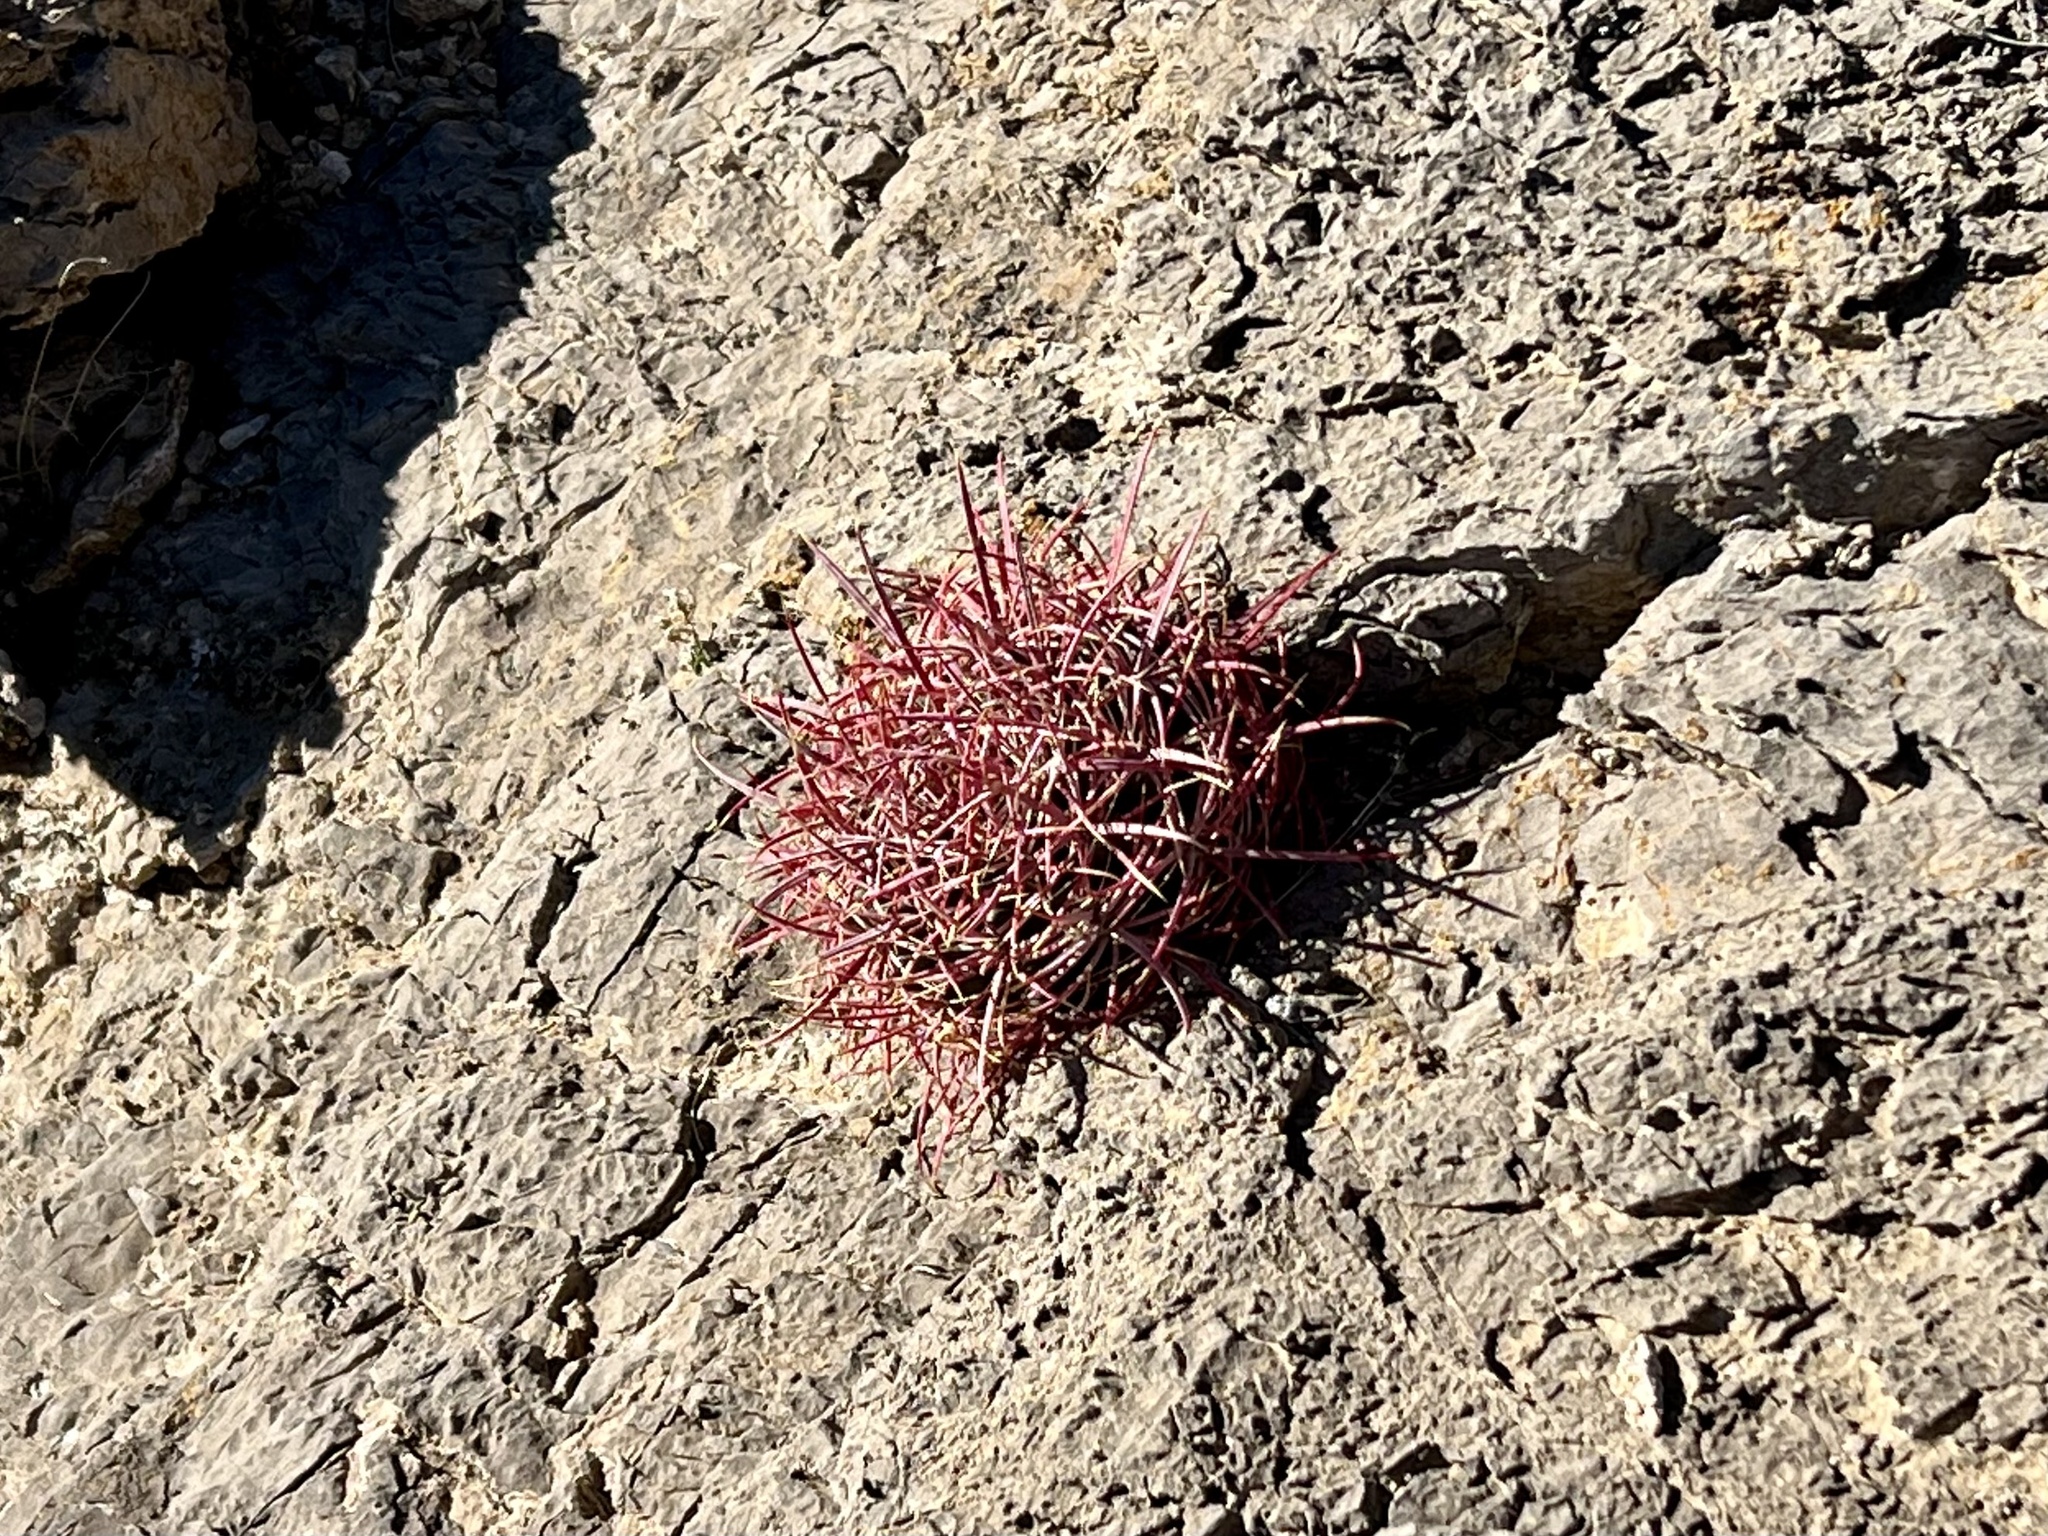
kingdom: Plantae
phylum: Tracheophyta
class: Magnoliopsida
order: Caryophyllales
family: Cactaceae
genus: Ferocactus
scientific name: Ferocactus cylindraceus
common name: California barrel cactus
